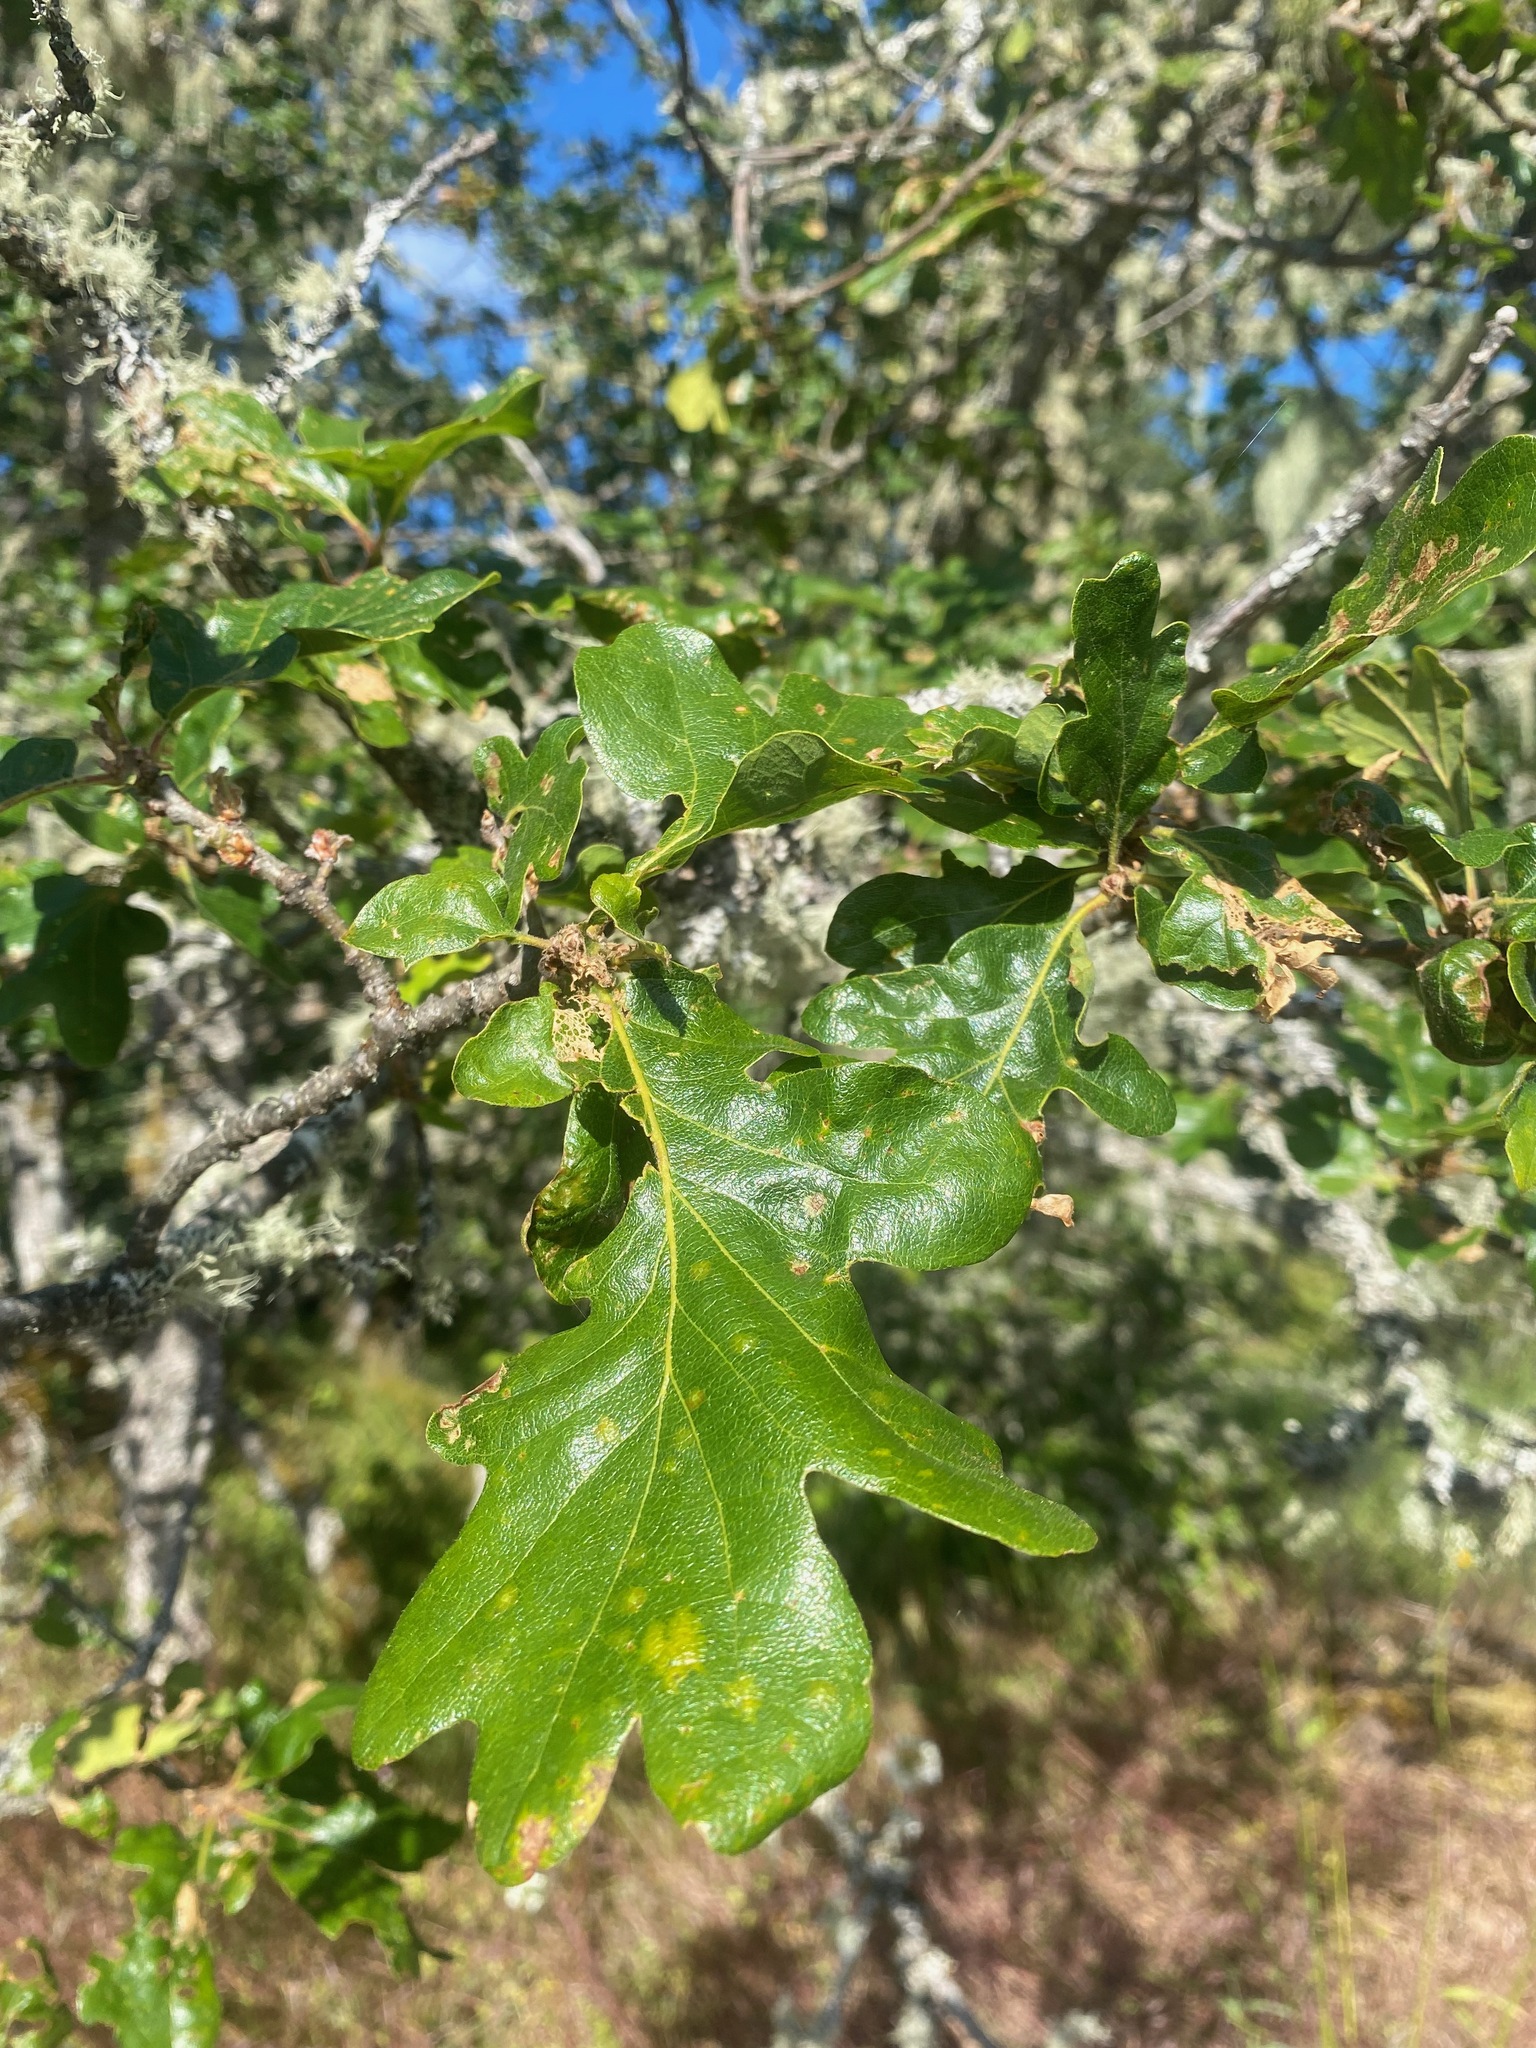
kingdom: Plantae
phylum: Tracheophyta
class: Magnoliopsida
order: Fagales
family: Fagaceae
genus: Quercus
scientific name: Quercus garryana
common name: Garry oak
